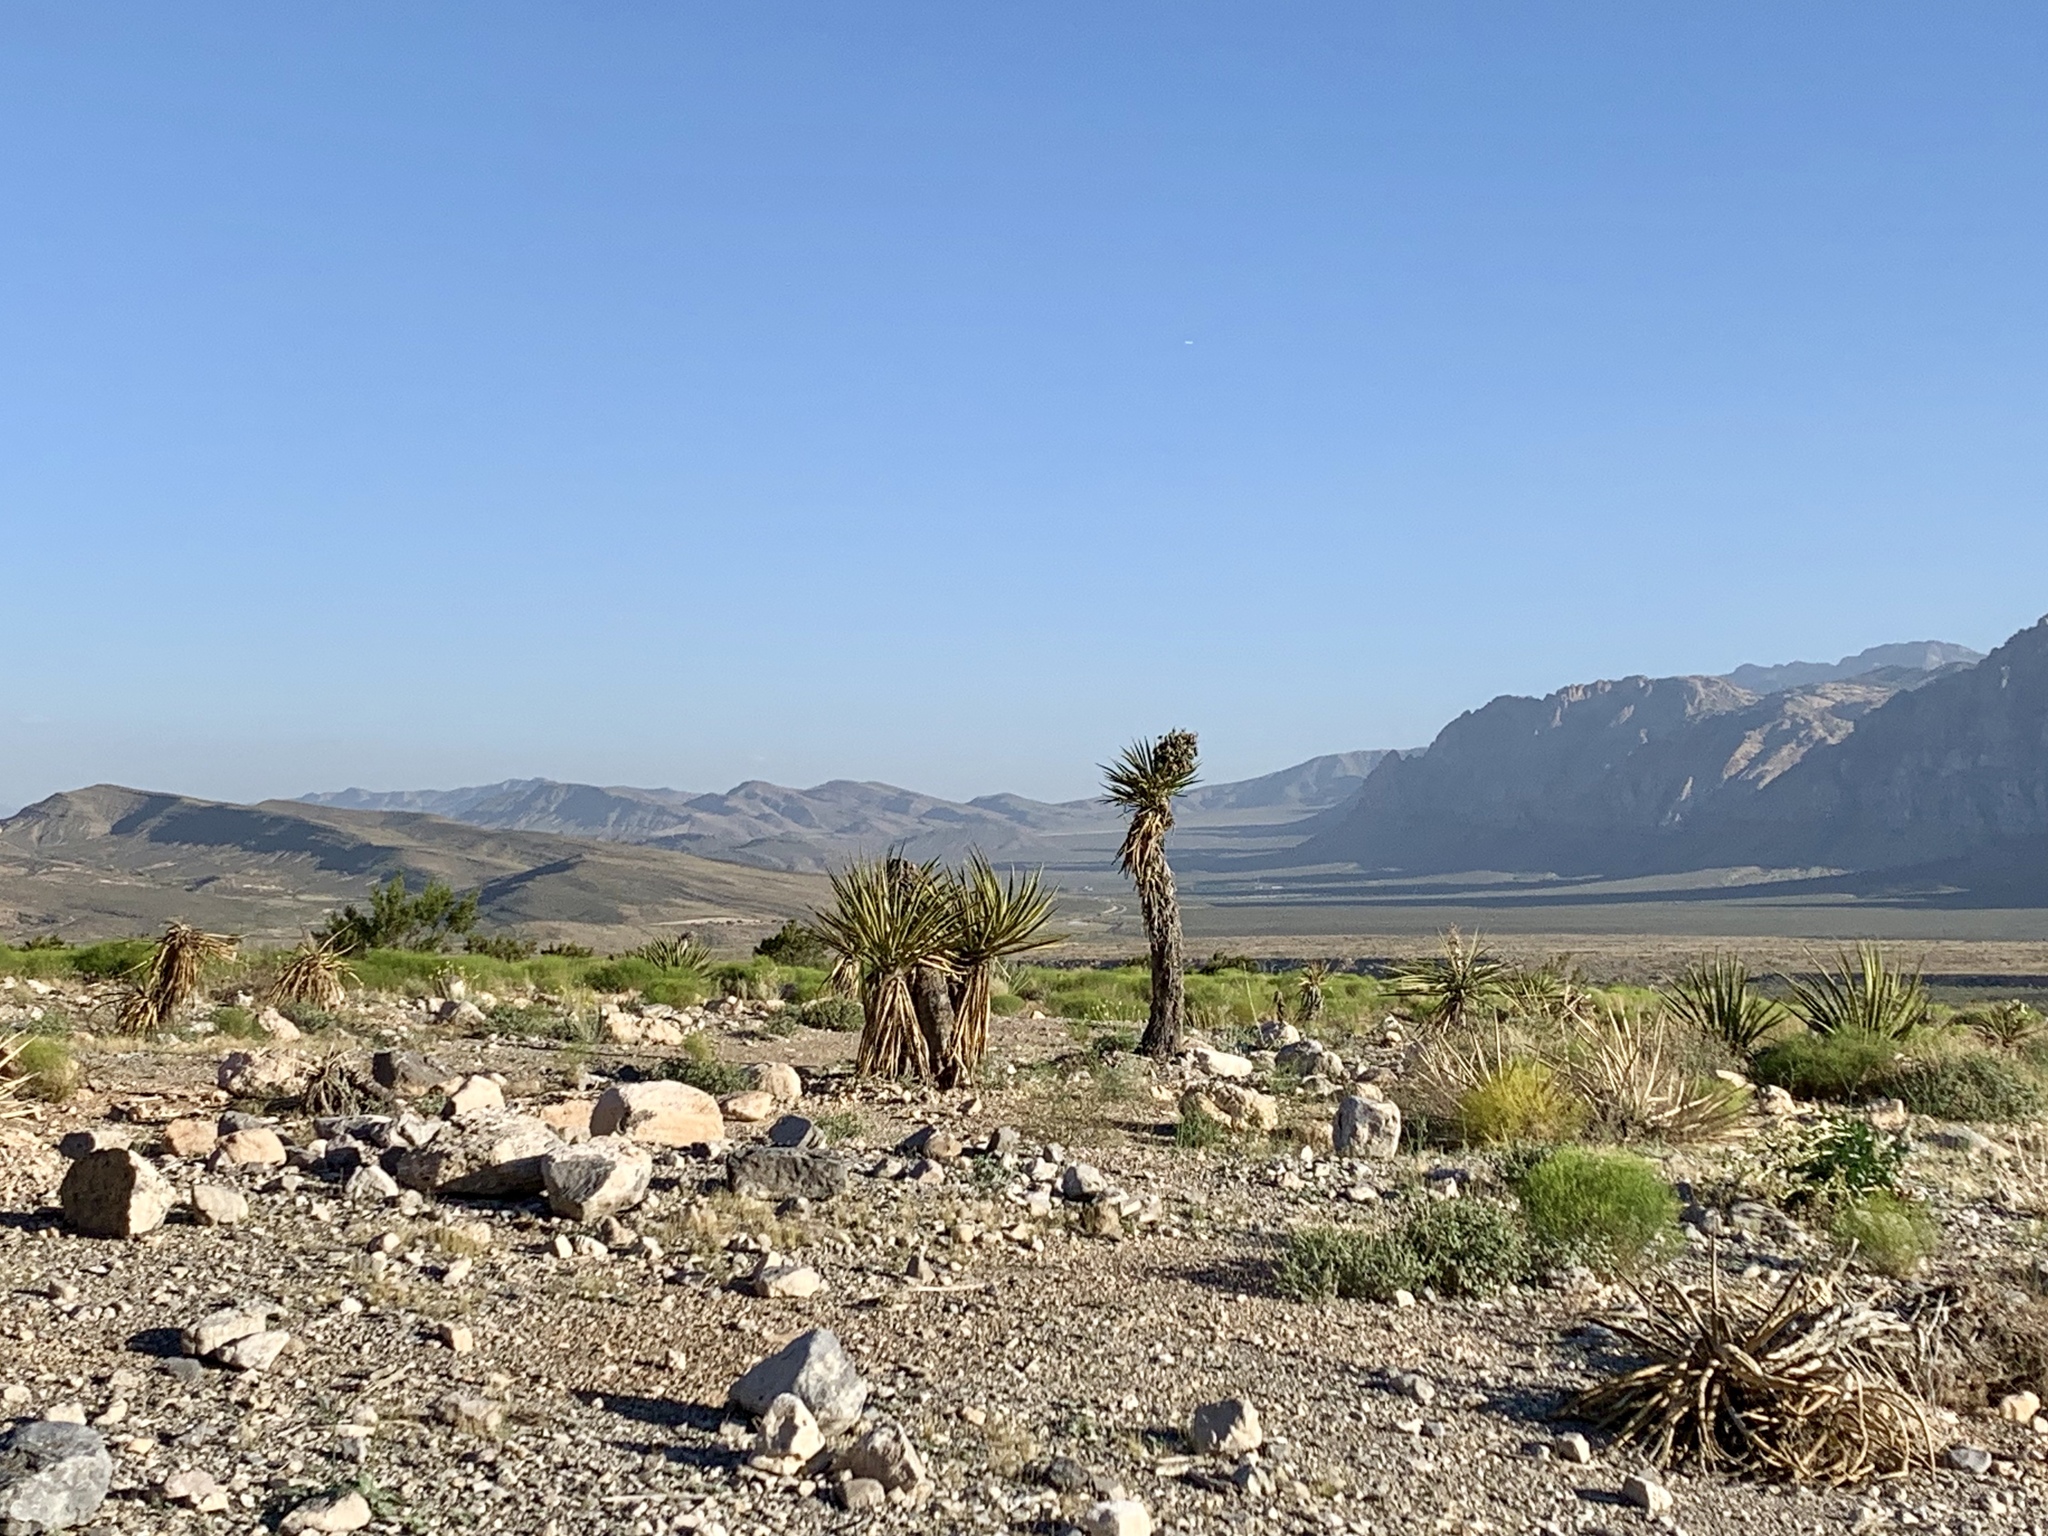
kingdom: Plantae
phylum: Tracheophyta
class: Liliopsida
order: Asparagales
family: Asparagaceae
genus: Yucca
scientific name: Yucca schidigera
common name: Mojave yucca
